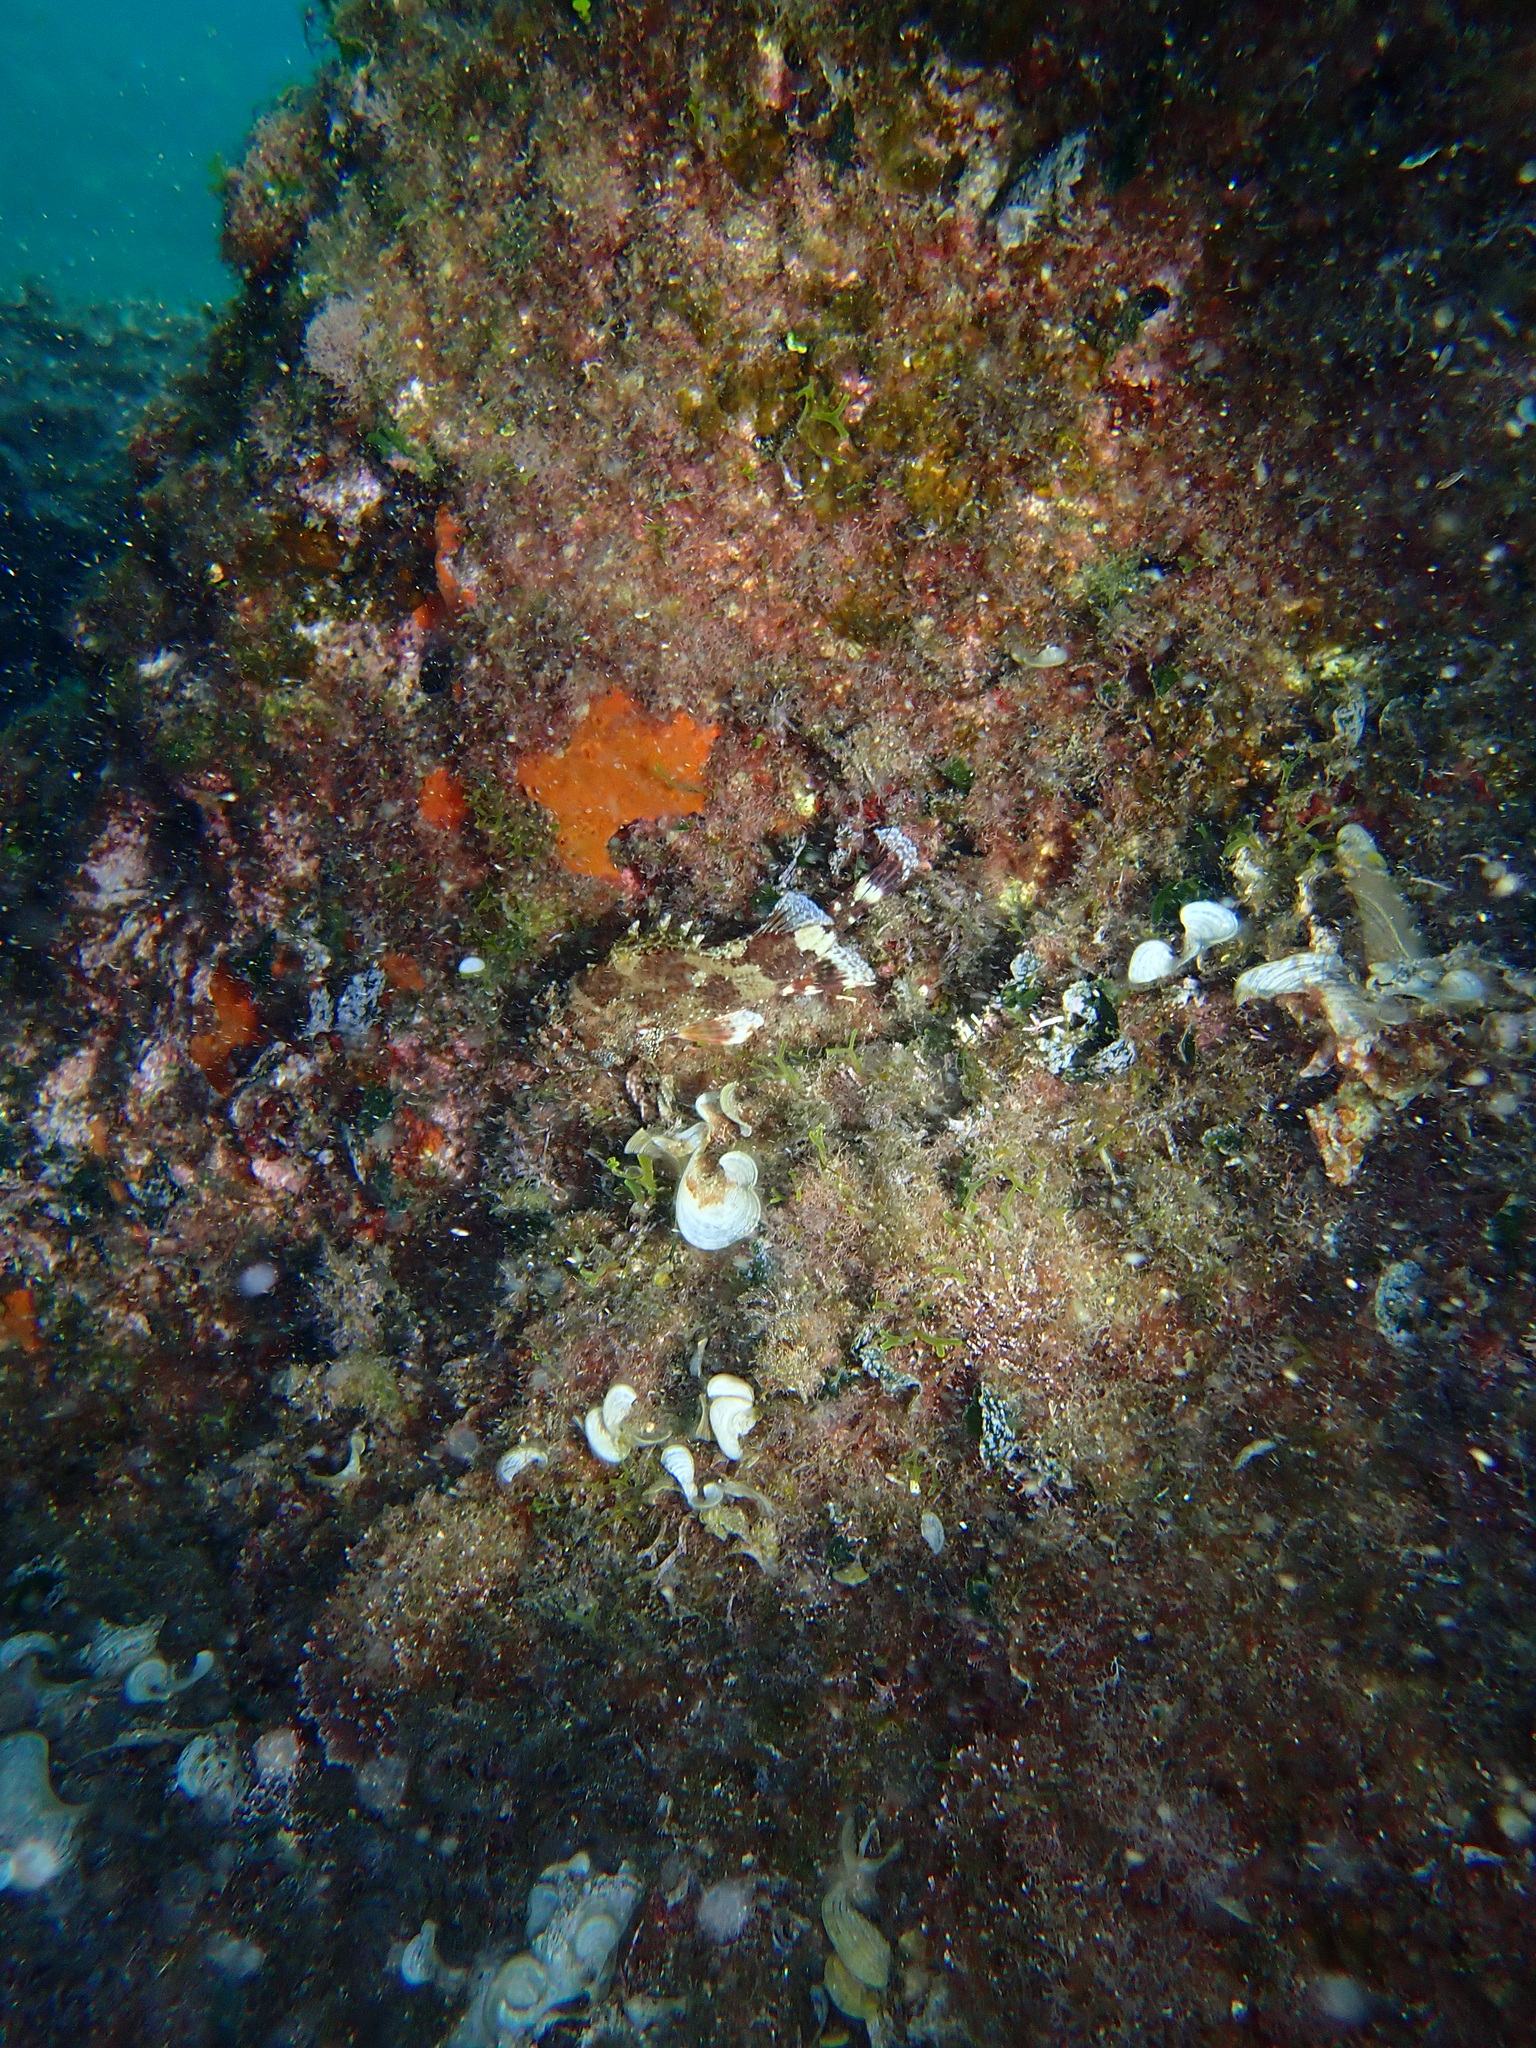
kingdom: Animalia
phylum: Chordata
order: Scorpaeniformes
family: Scorpaenidae
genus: Scorpaena
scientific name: Scorpaena maderensis
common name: Madeira rockfish
